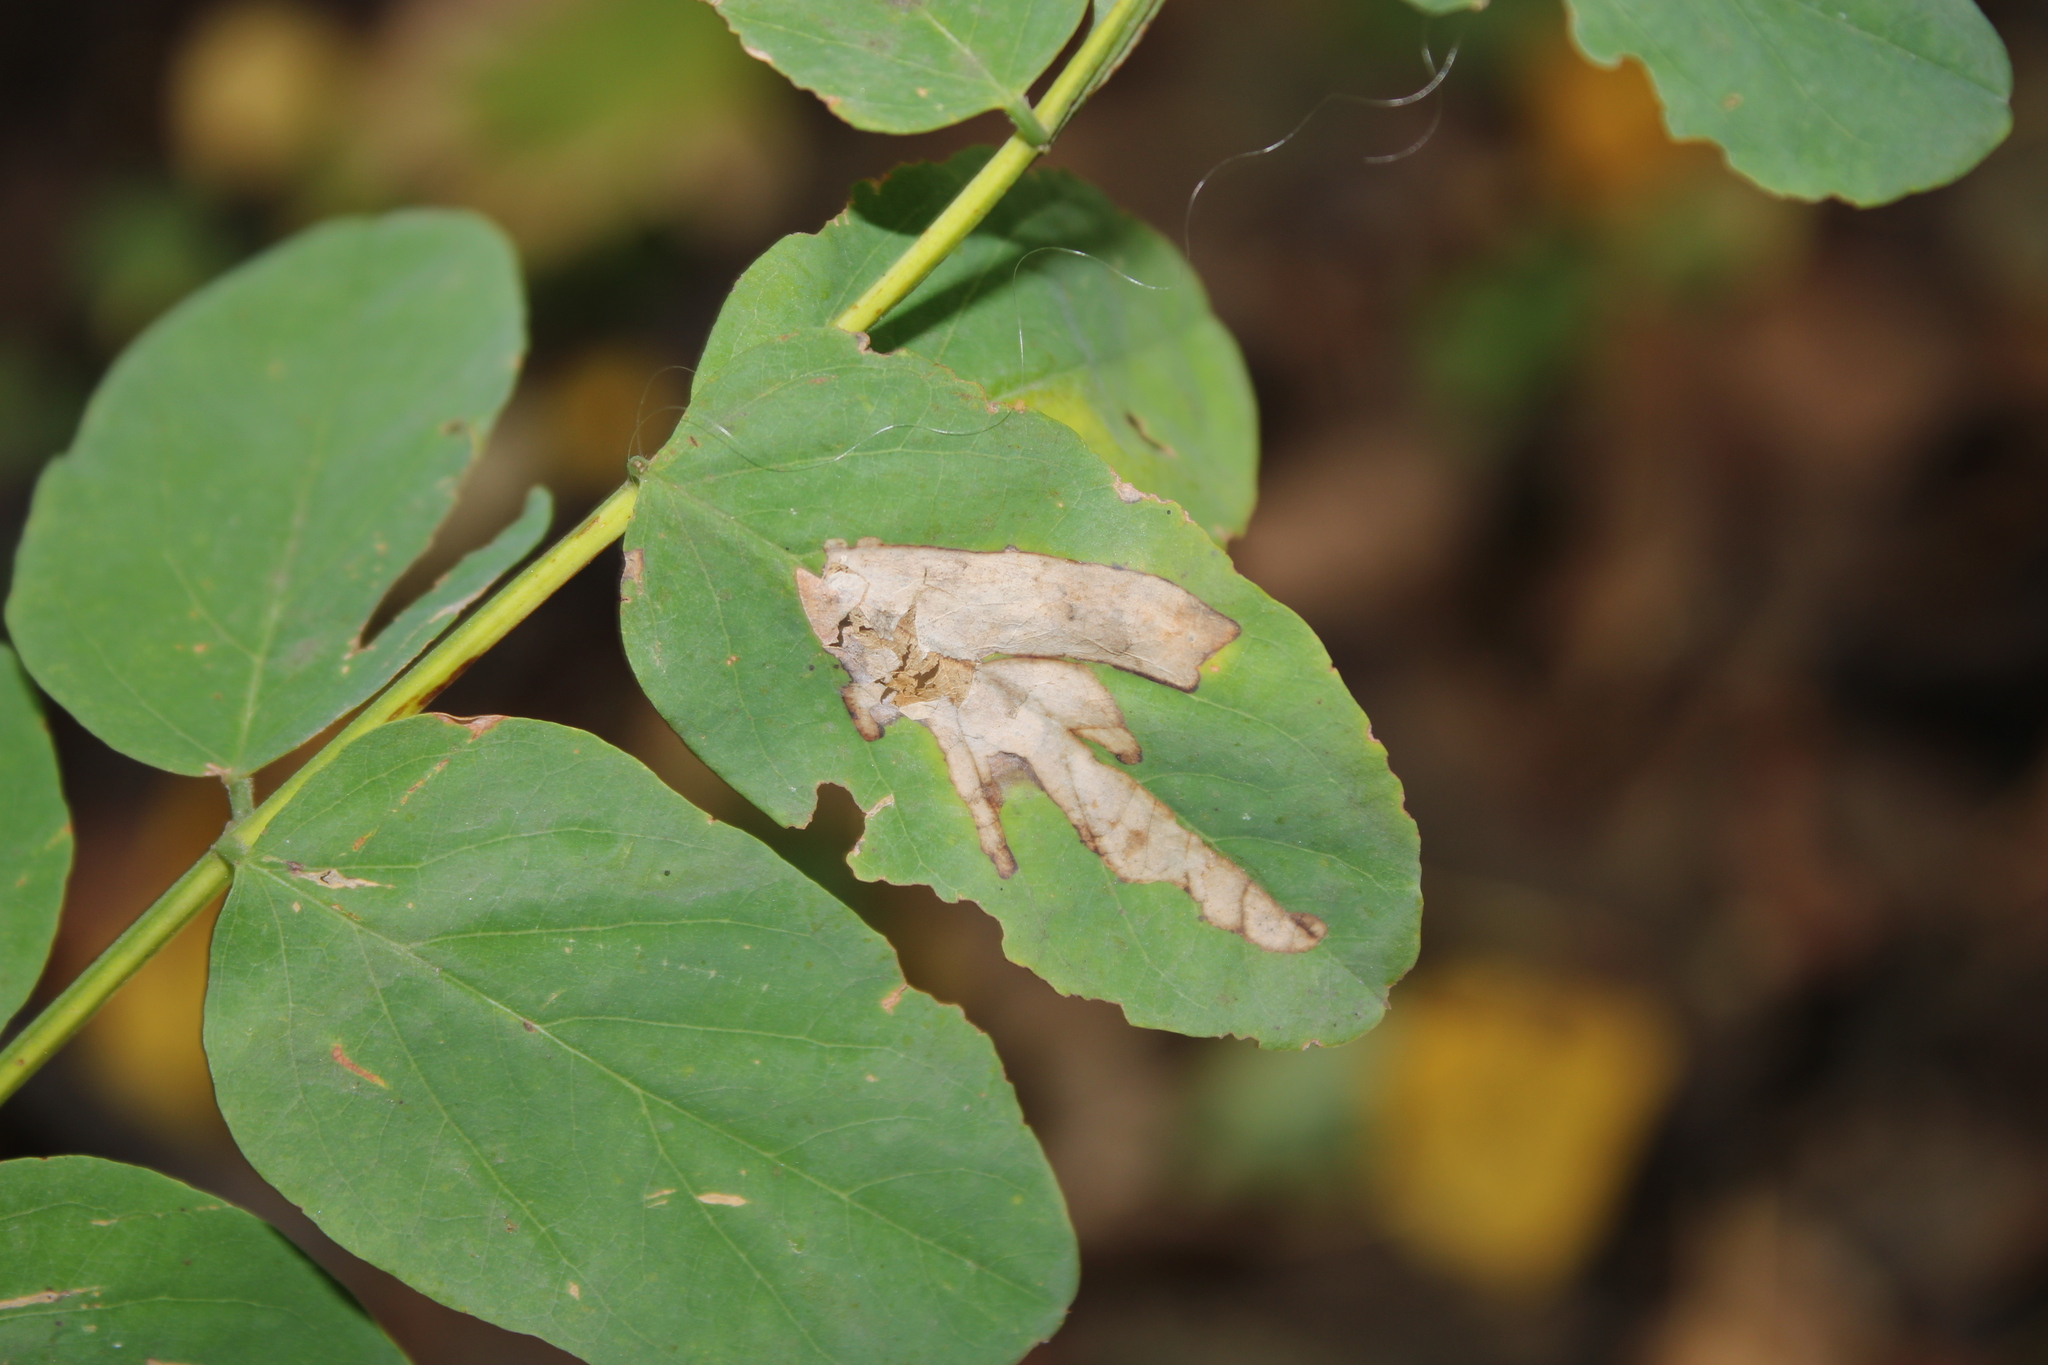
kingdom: Animalia
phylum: Arthropoda
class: Insecta
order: Lepidoptera
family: Gracillariidae
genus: Parectopa
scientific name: Parectopa robiniella
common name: Locust digitate leafminer
